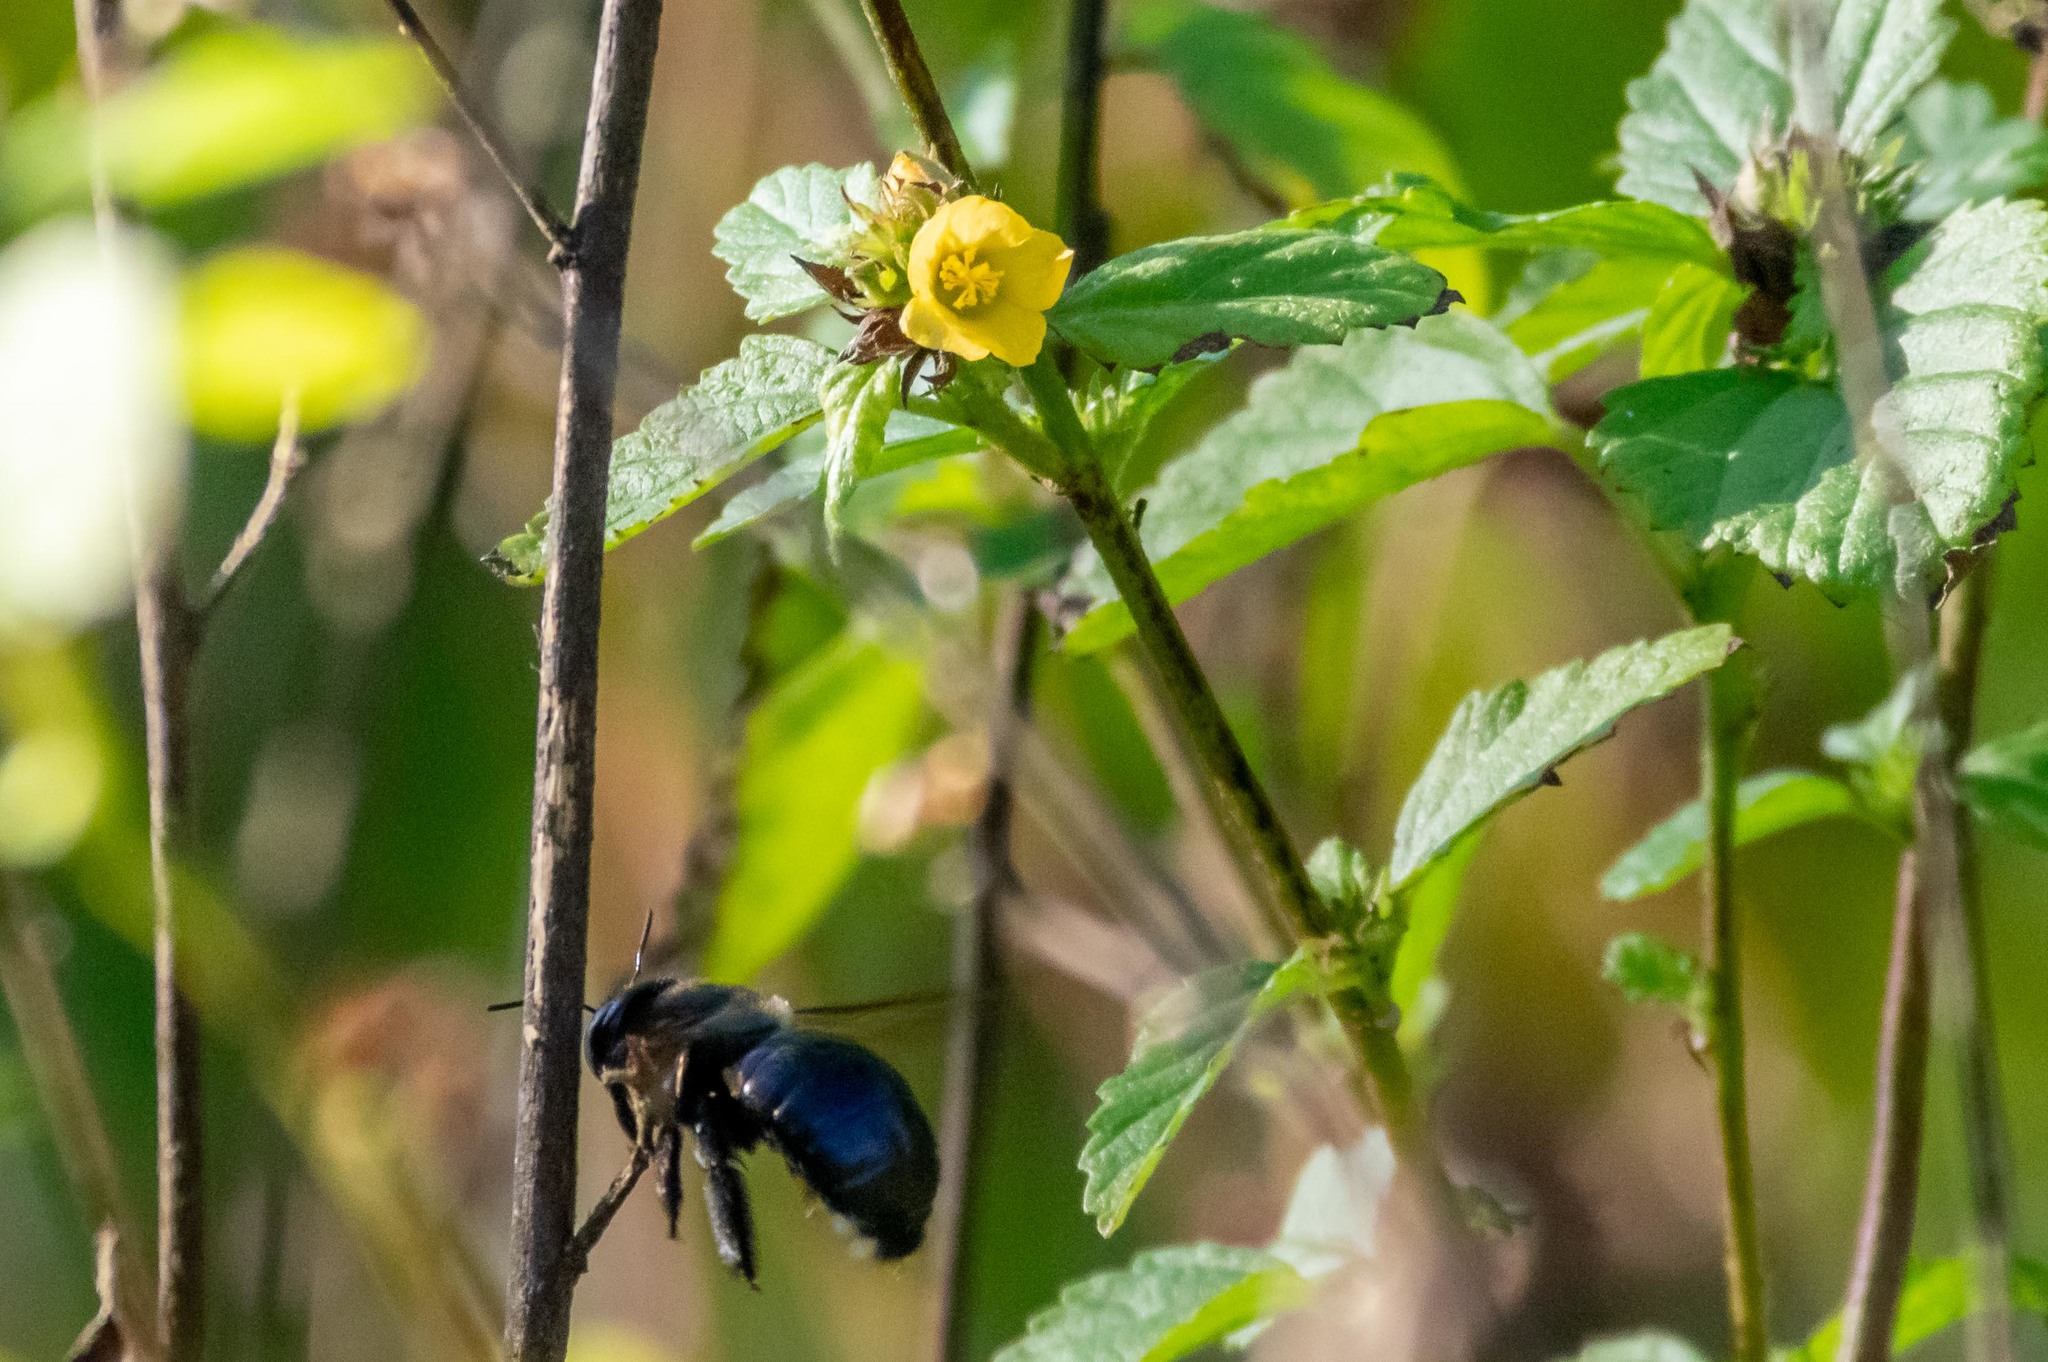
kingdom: Animalia
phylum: Arthropoda
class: Insecta
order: Hymenoptera
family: Apidae
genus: Xylocopa
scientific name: Xylocopa micans
